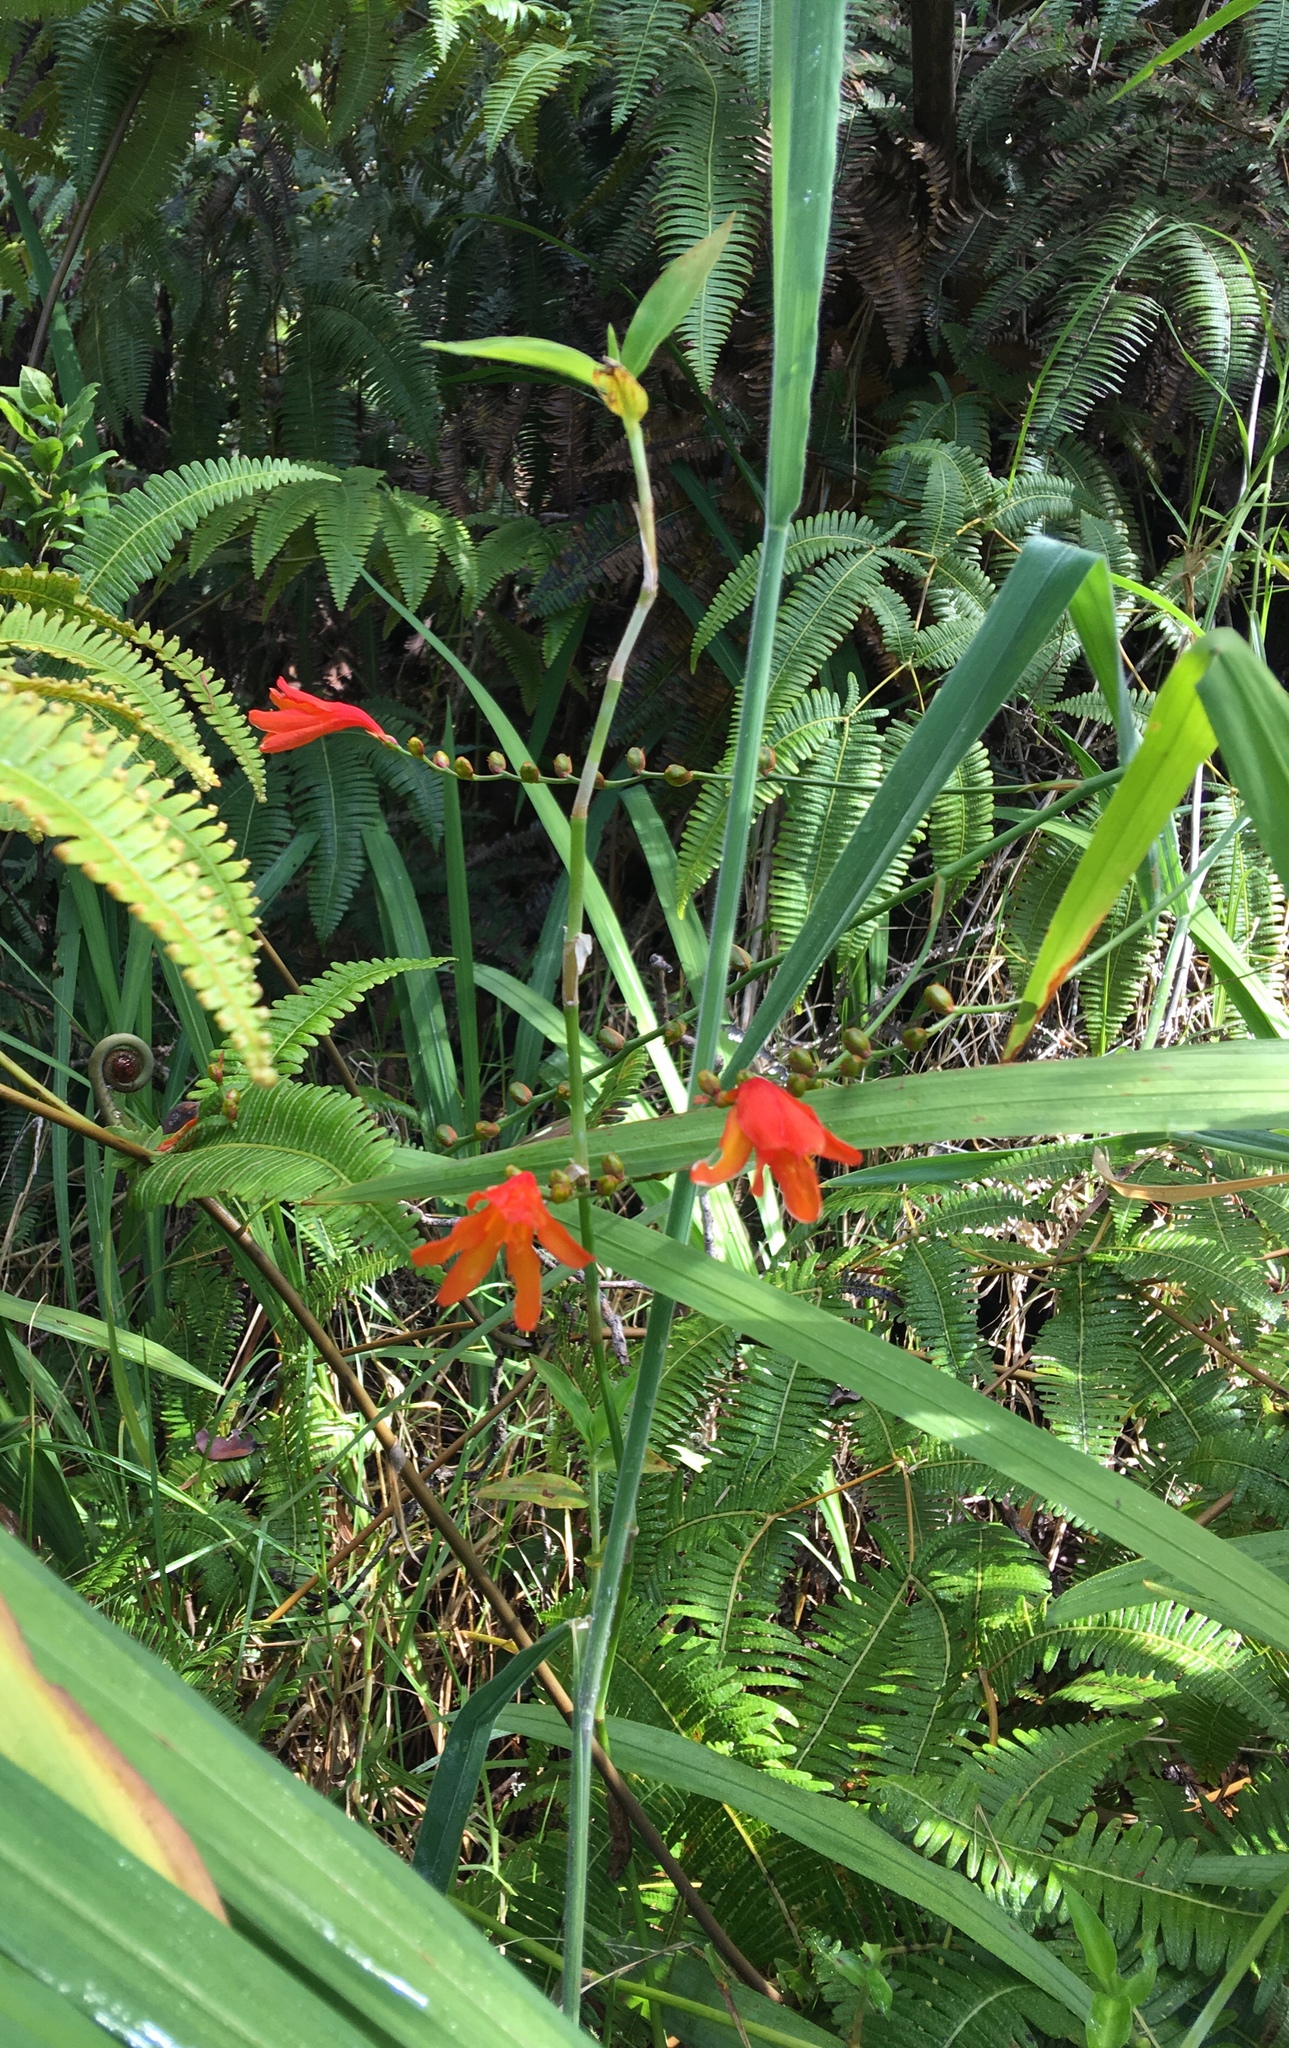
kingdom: Plantae
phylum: Tracheophyta
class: Liliopsida
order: Asparagales
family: Iridaceae
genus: Crocosmia
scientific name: Crocosmia crocosmiiflora
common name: Montbretia
